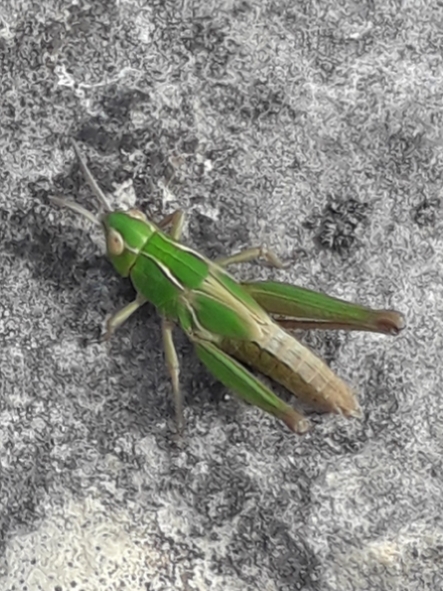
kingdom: Animalia
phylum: Arthropoda
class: Insecta
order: Orthoptera
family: Acrididae
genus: Omocestus
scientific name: Omocestus viridulus
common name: Common green grasshopper
